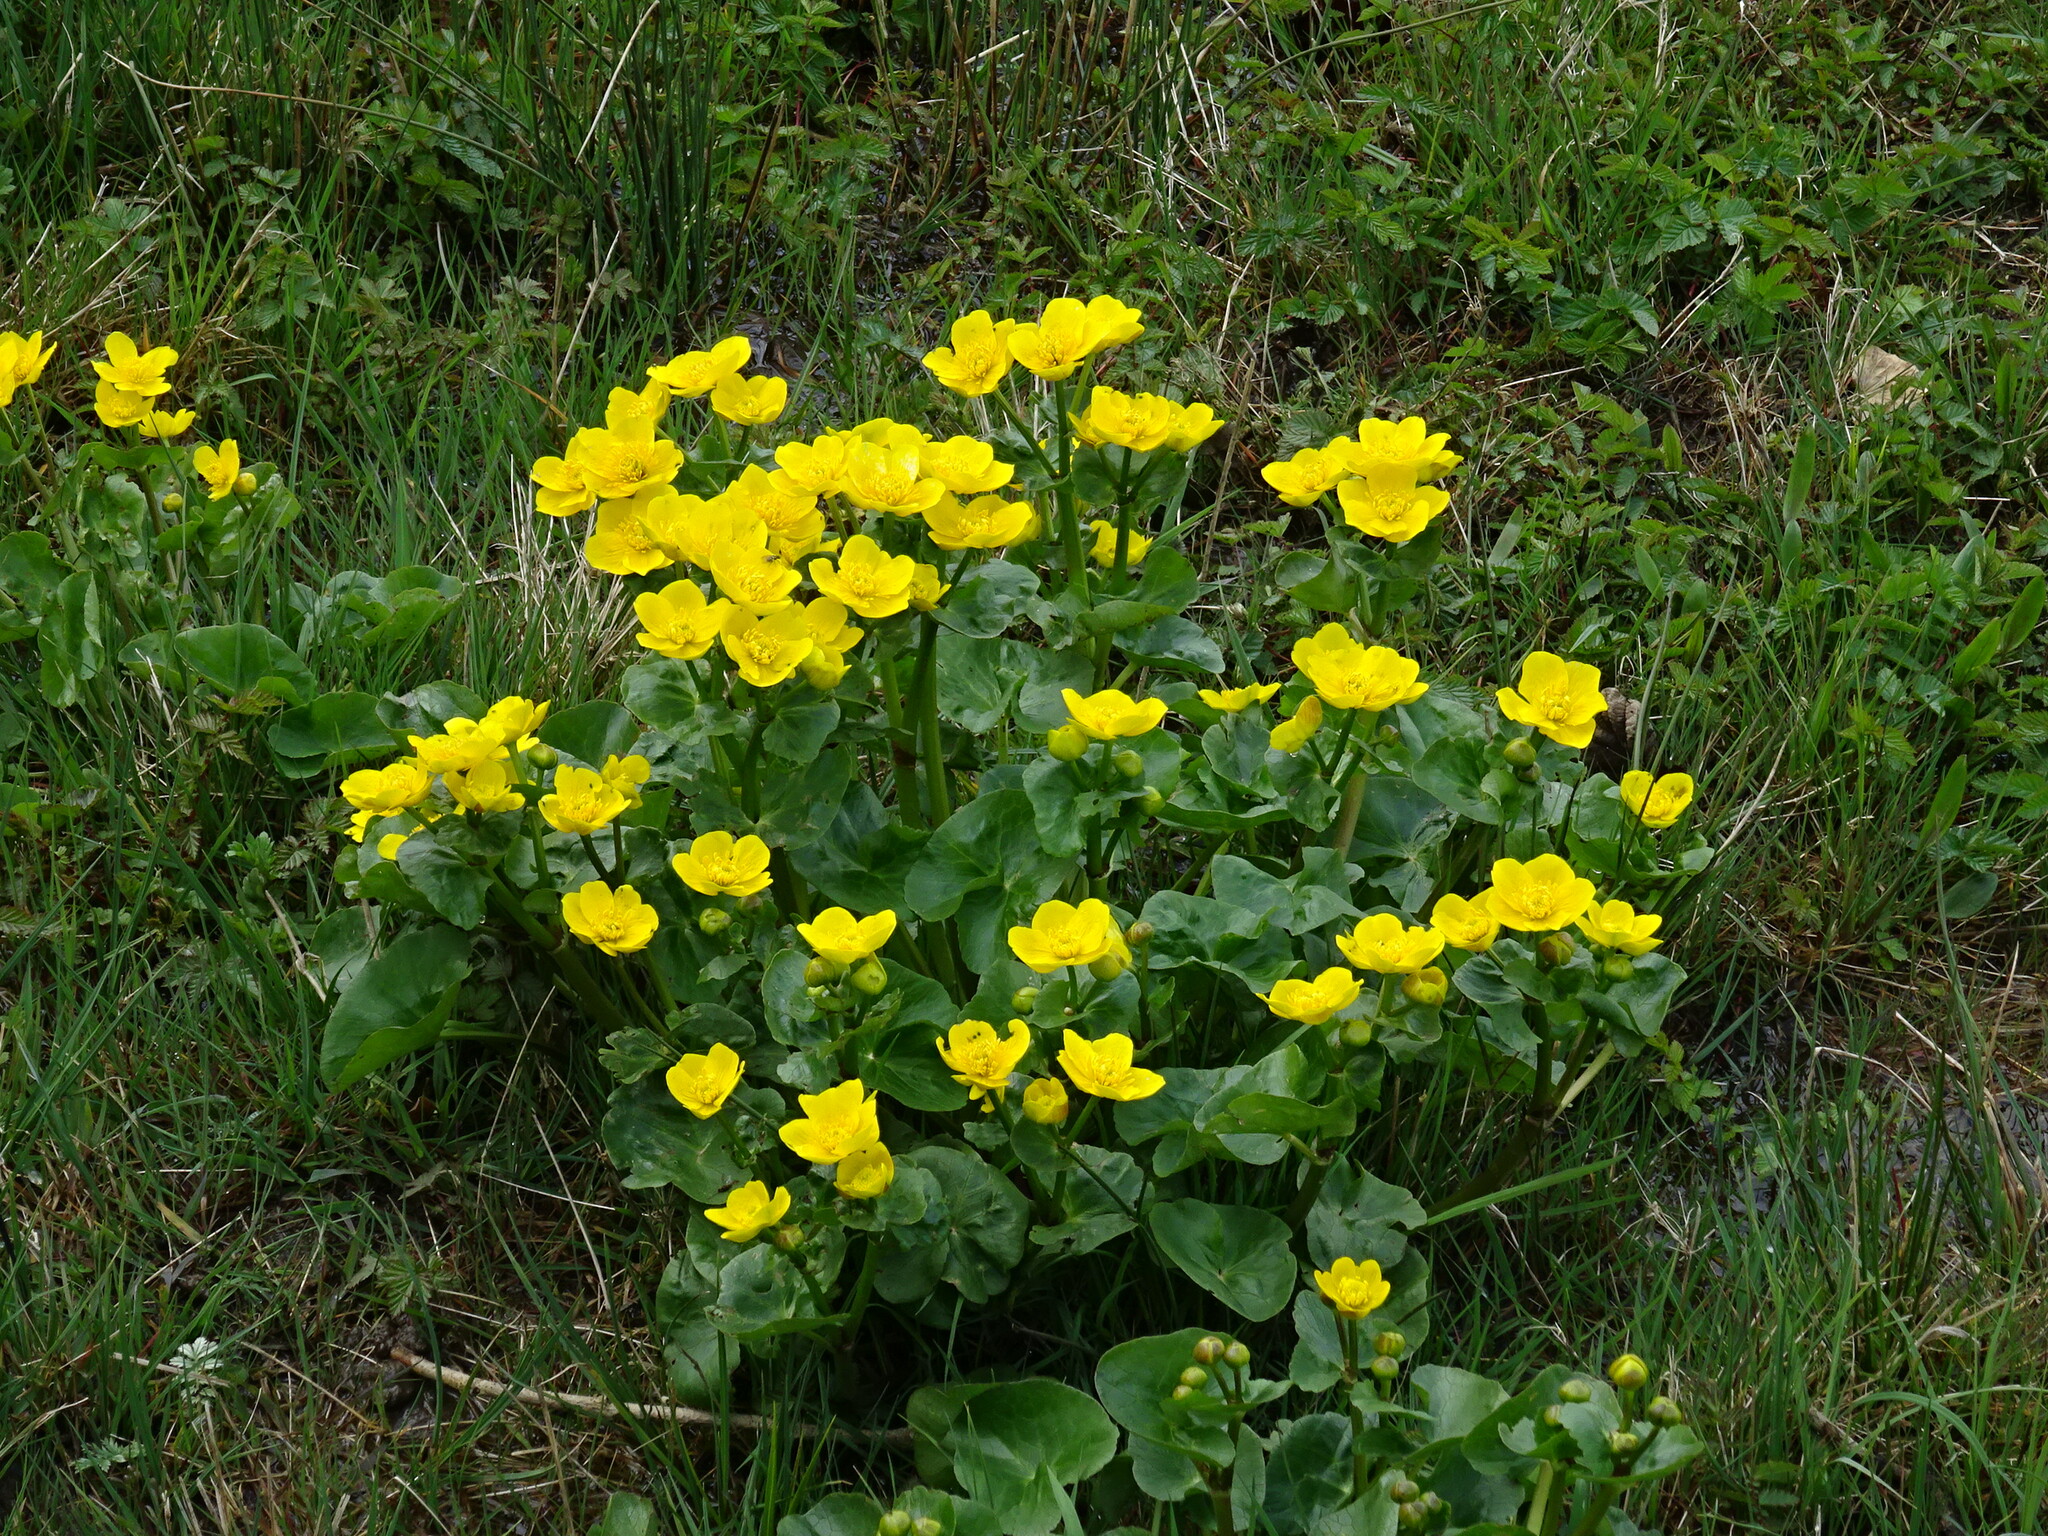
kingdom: Plantae
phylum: Tracheophyta
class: Magnoliopsida
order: Ranunculales
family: Ranunculaceae
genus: Caltha
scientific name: Caltha palustris
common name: Marsh marigold
